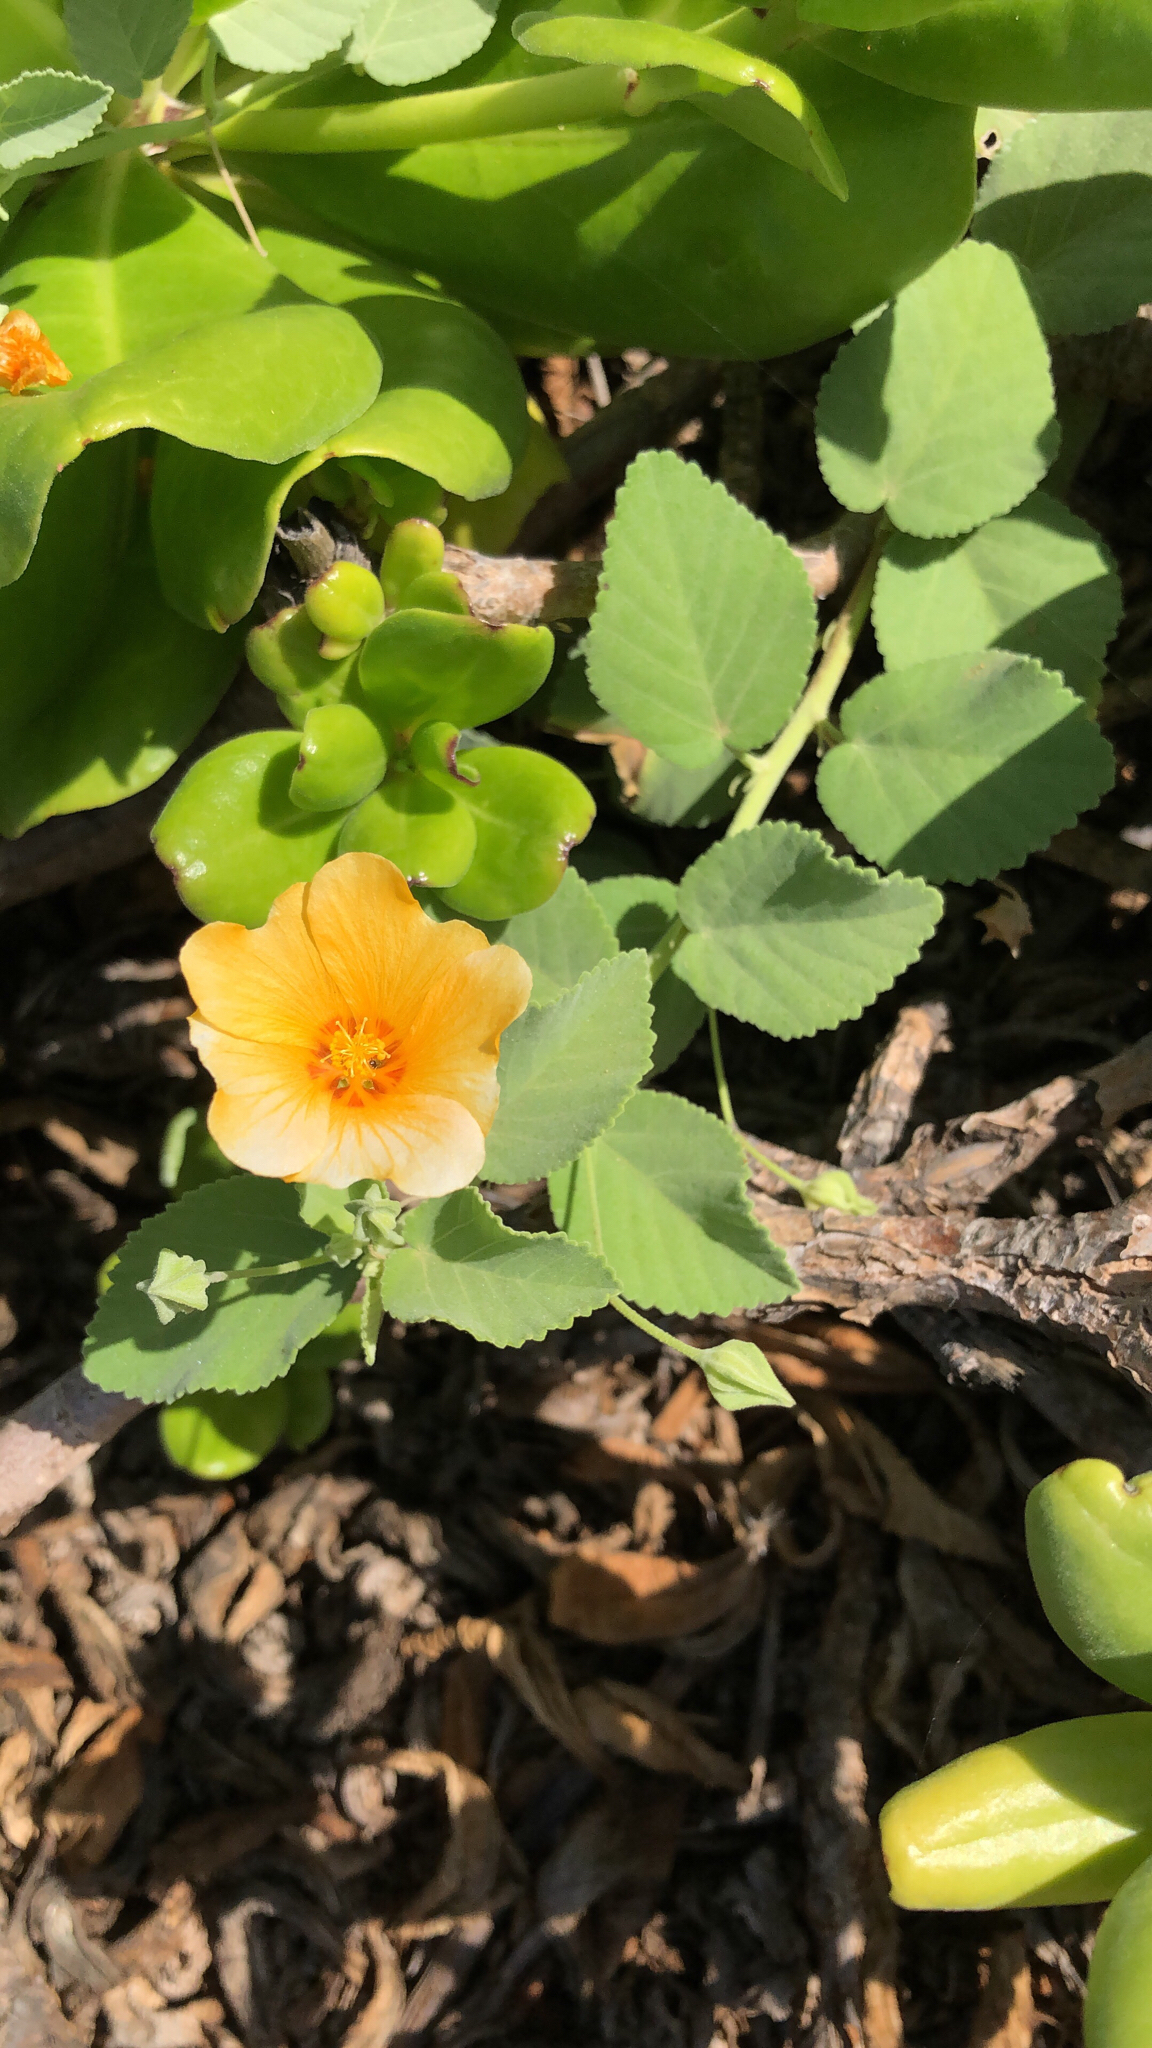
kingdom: Plantae
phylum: Tracheophyta
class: Magnoliopsida
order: Malvales
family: Malvaceae
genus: Sida
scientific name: Sida fallax
